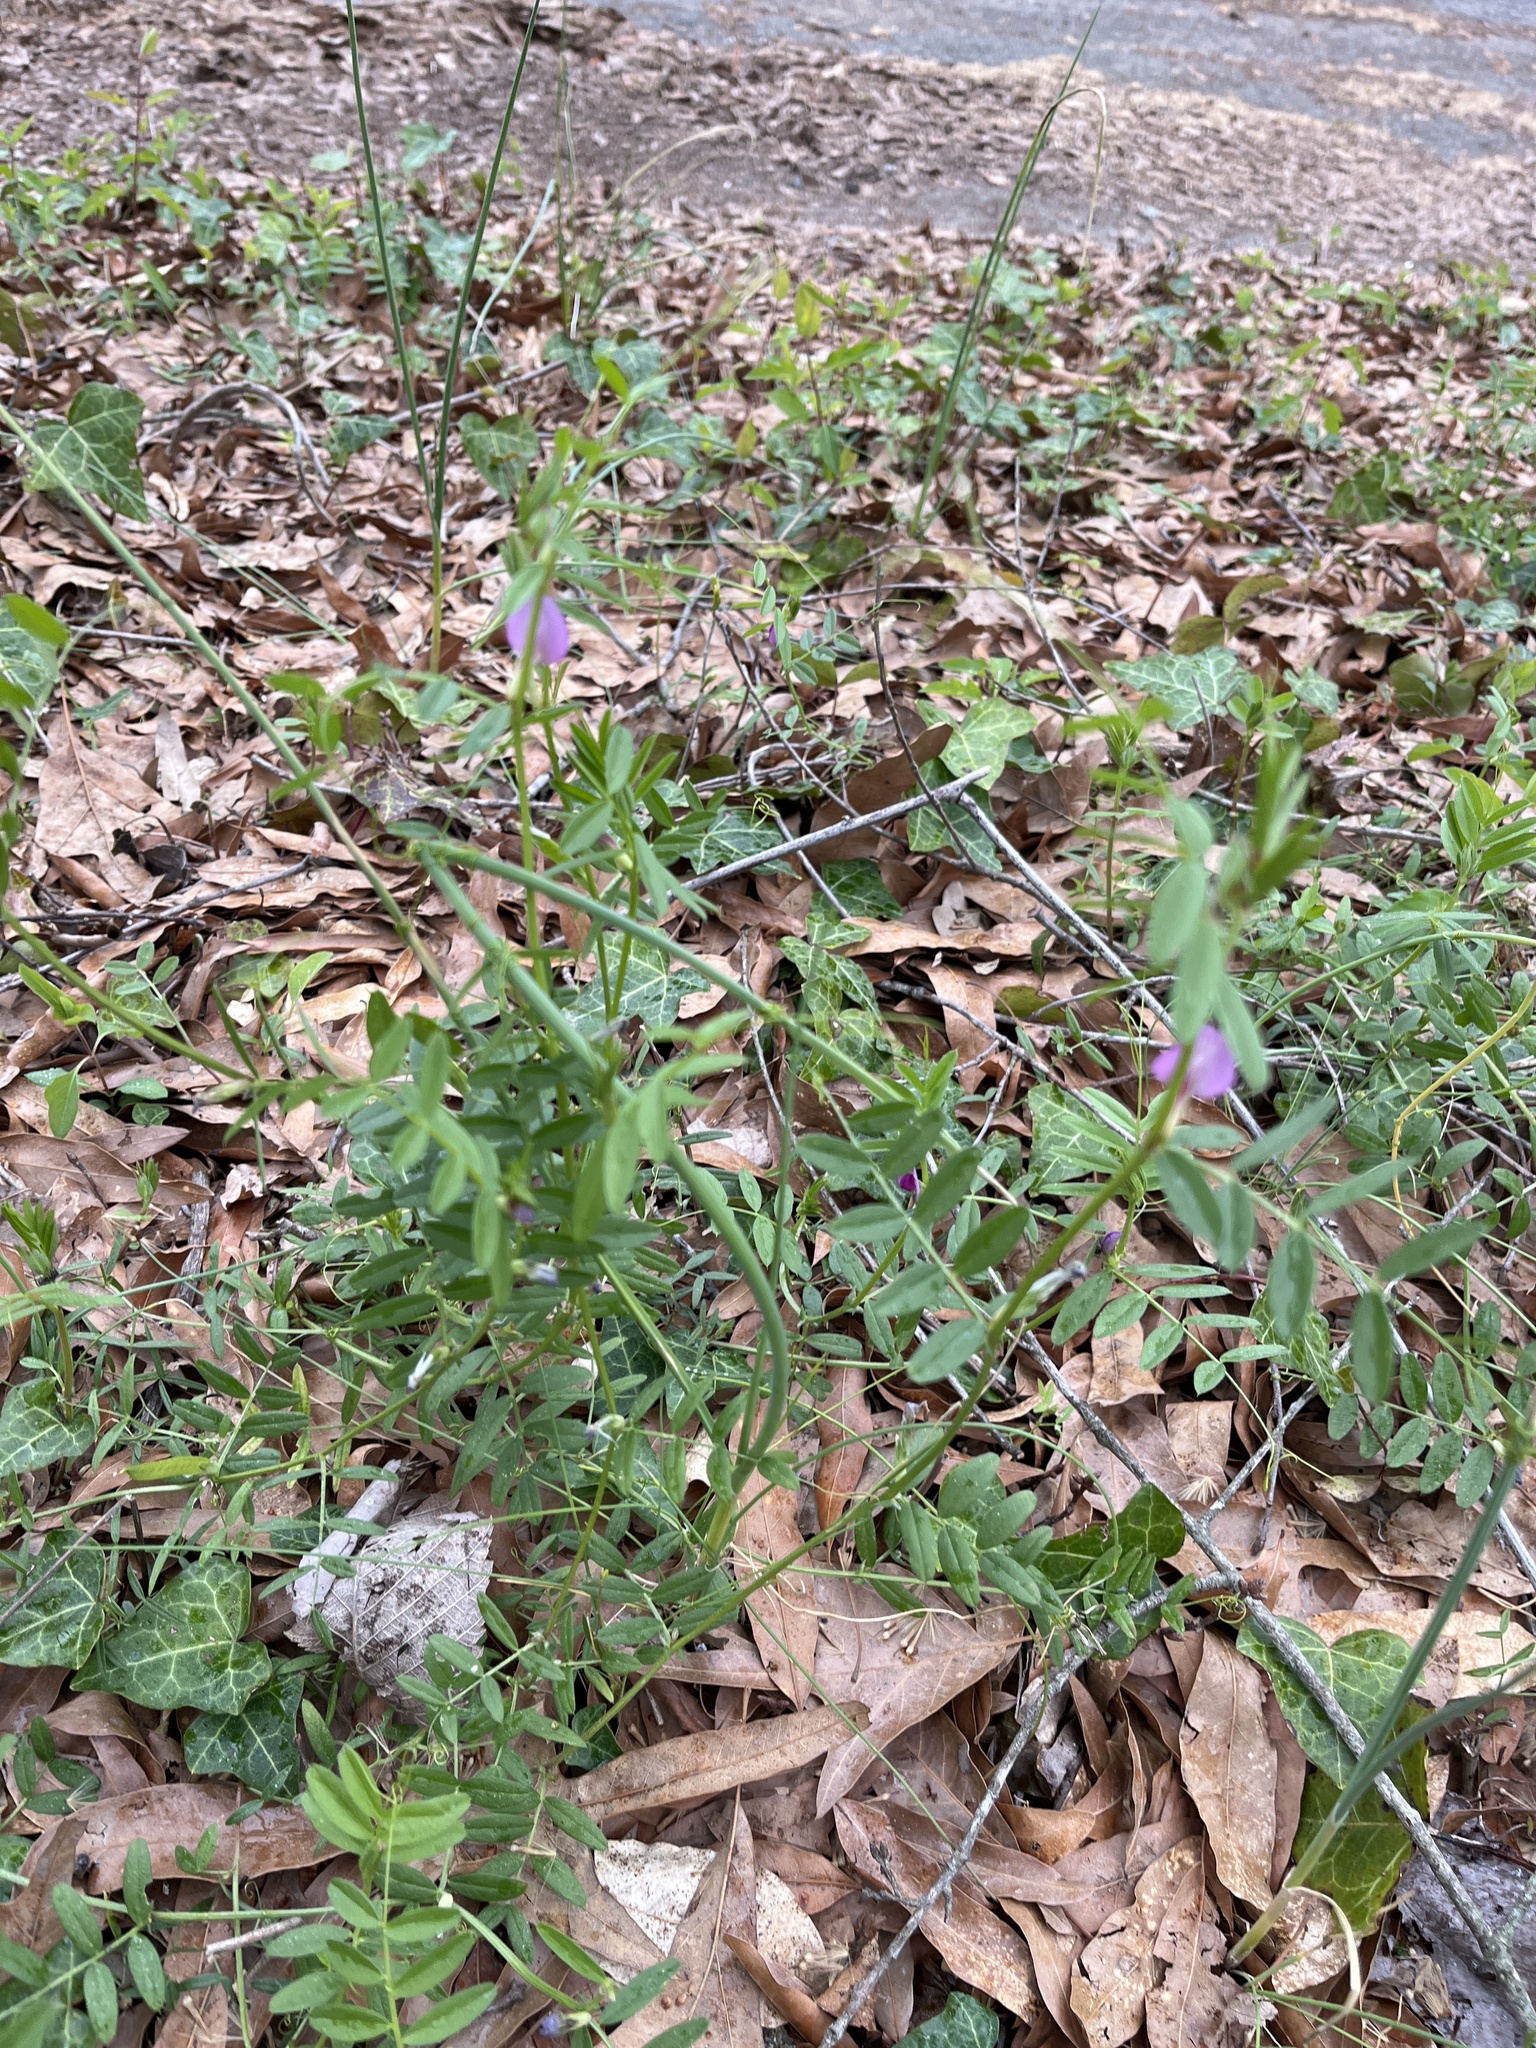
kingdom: Plantae
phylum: Tracheophyta
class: Magnoliopsida
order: Fabales
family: Fabaceae
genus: Vicia
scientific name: Vicia sativa
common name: Garden vetch
